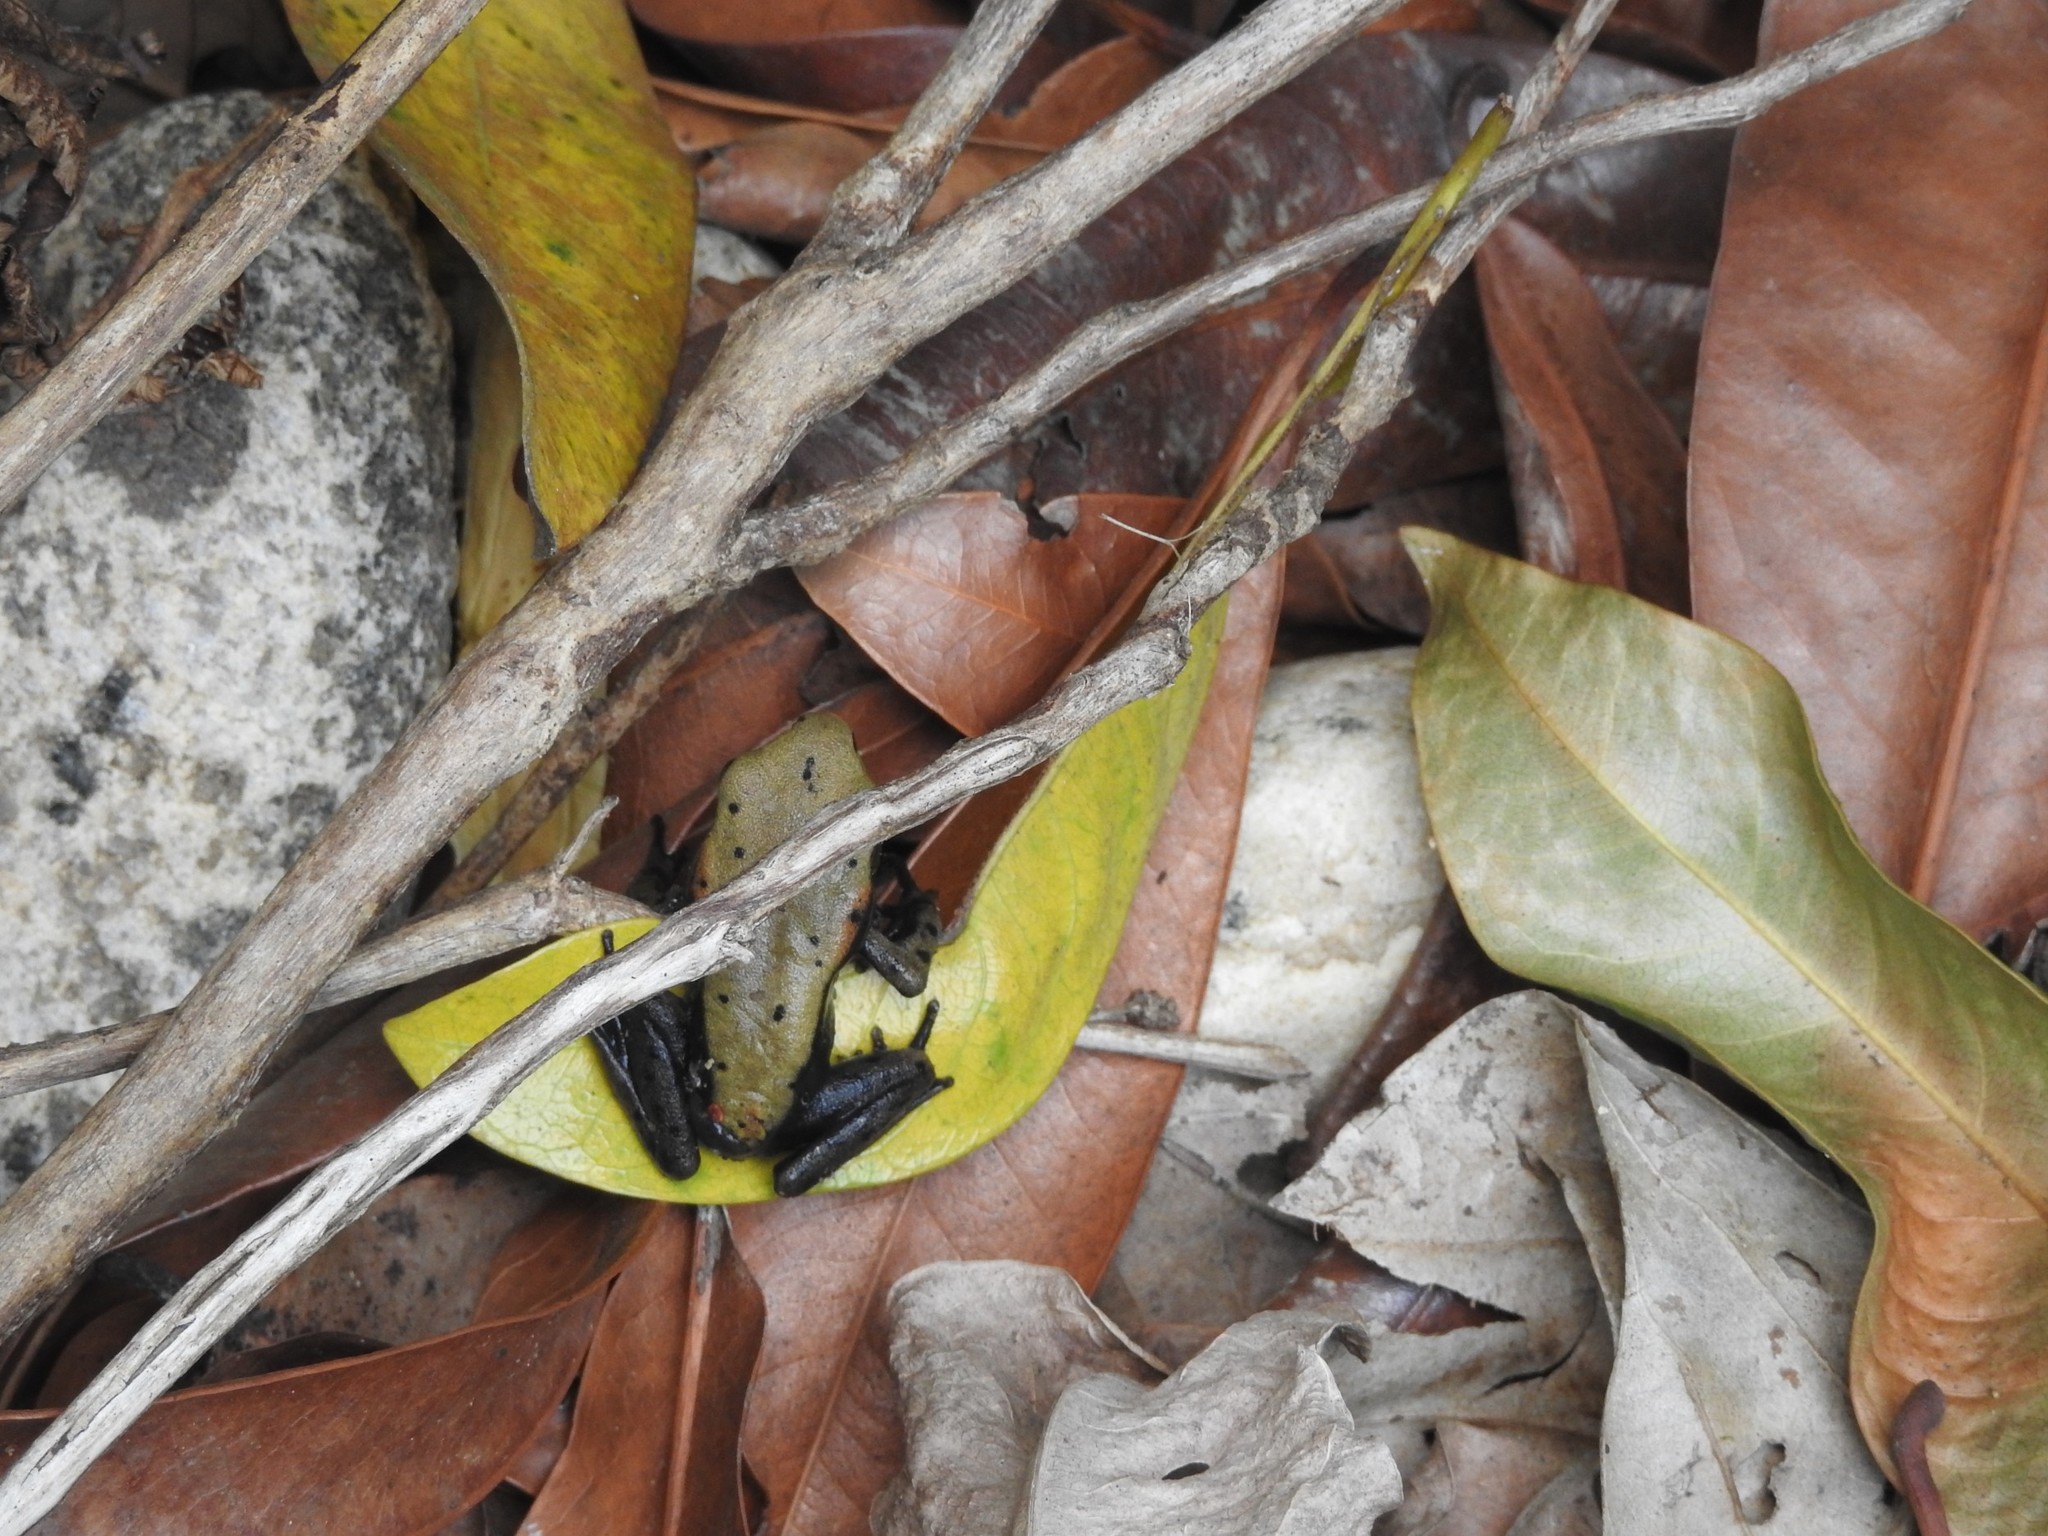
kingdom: Animalia
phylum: Chordata
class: Amphibia
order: Anura
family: Ranidae
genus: Clinotarsus
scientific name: Clinotarsus curtipes
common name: Bicoloured frog
